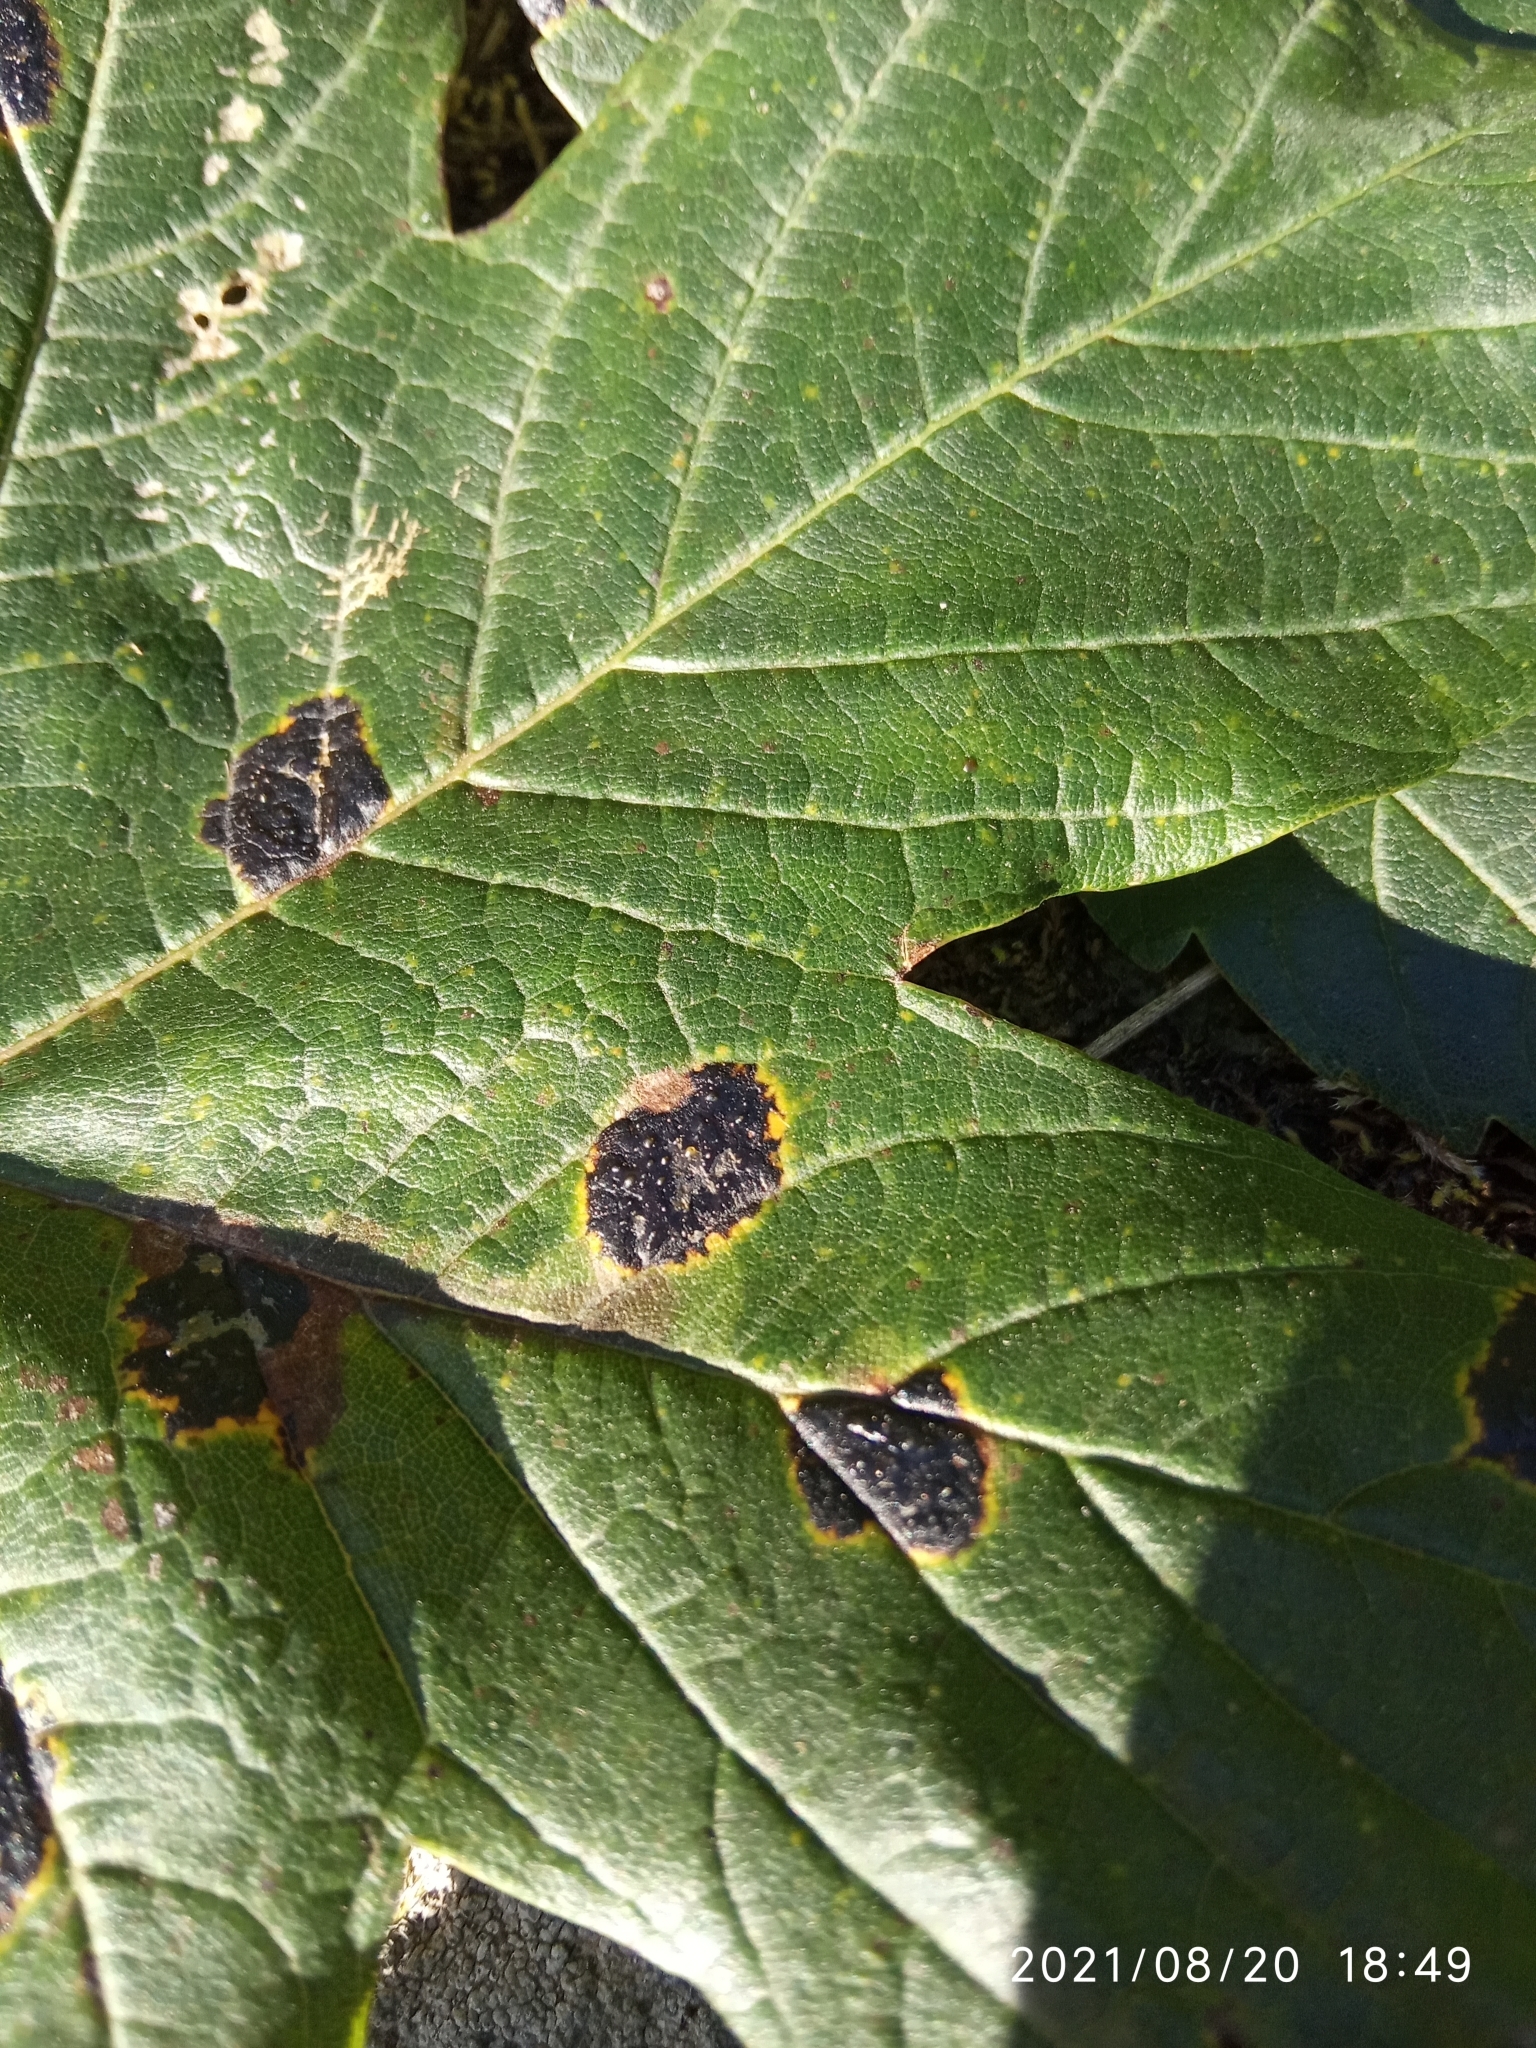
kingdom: Fungi
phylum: Ascomycota
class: Leotiomycetes
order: Rhytismatales
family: Rhytismataceae
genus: Rhytisma
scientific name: Rhytisma acerinum
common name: European tar spot
